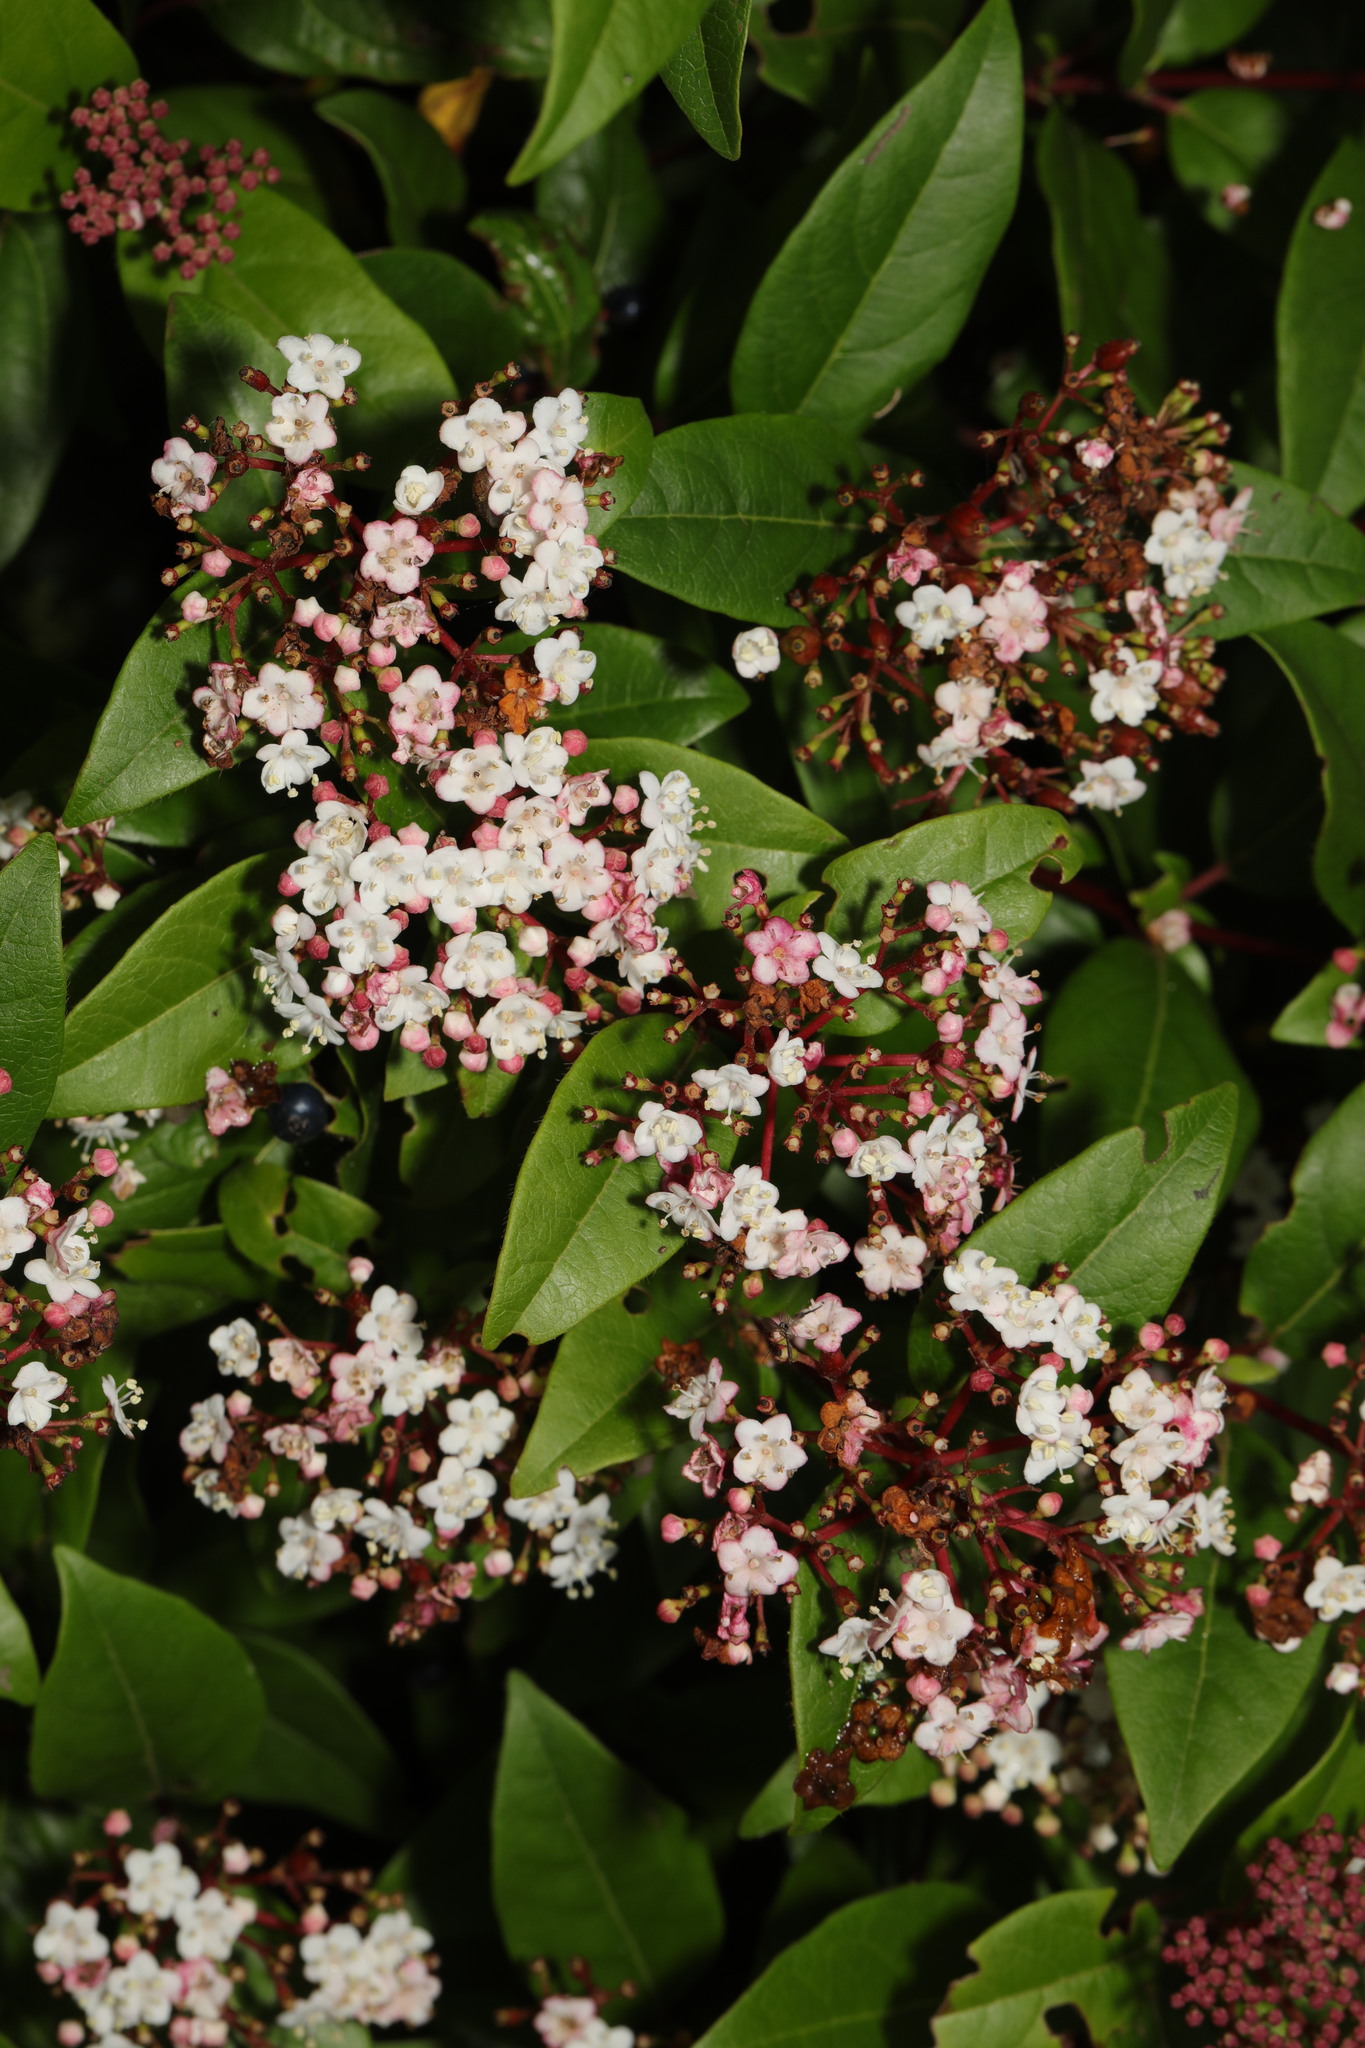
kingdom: Plantae
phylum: Tracheophyta
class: Magnoliopsida
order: Dipsacales
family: Viburnaceae
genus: Viburnum
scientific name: Viburnum tinus
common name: Laurustinus
